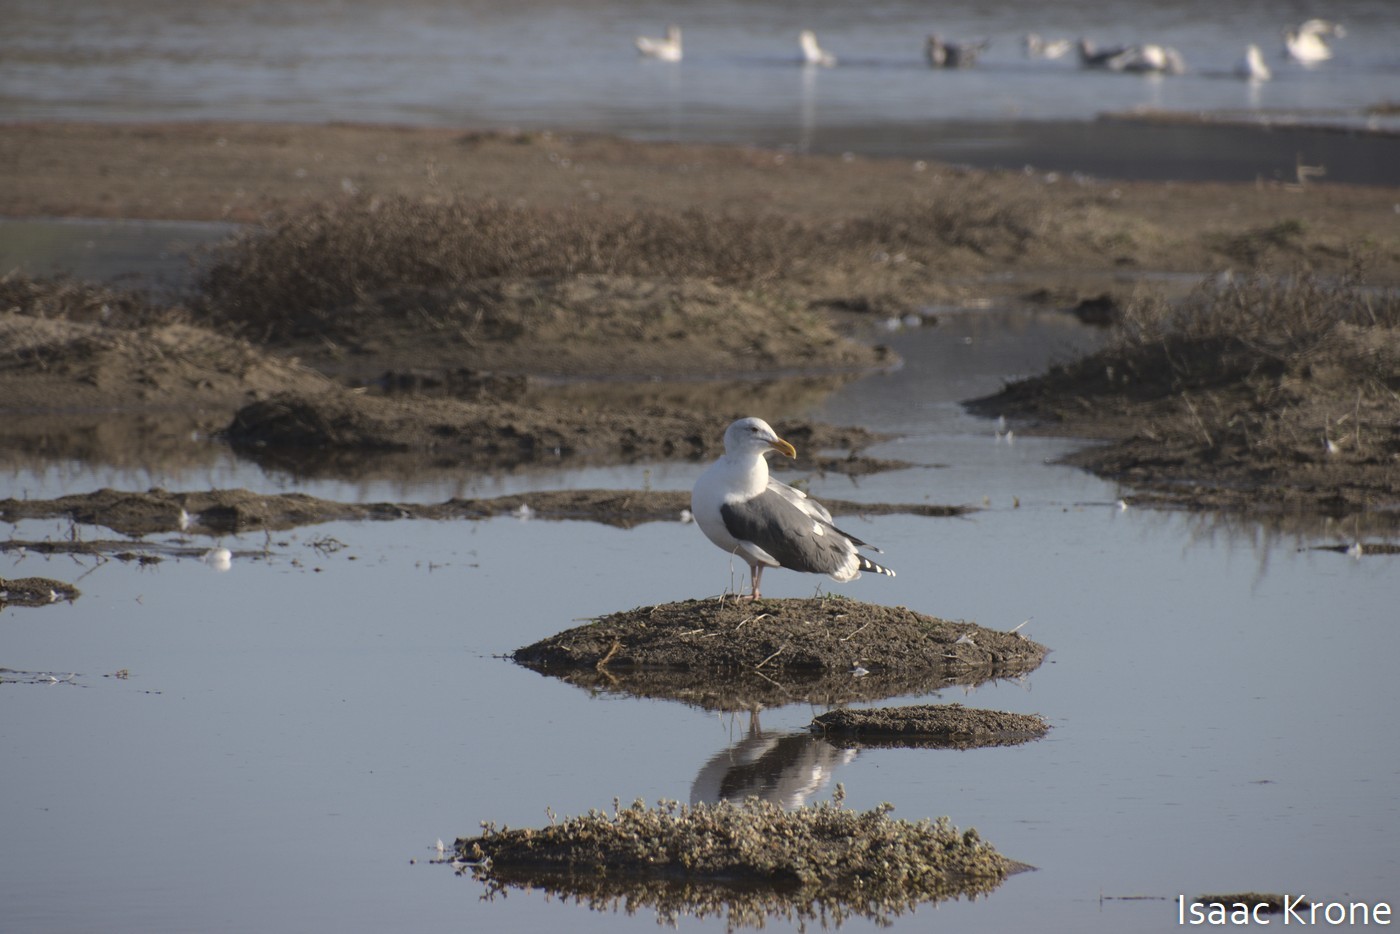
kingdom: Animalia
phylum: Chordata
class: Aves
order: Charadriiformes
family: Laridae
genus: Larus
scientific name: Larus occidentalis
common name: Western gull
